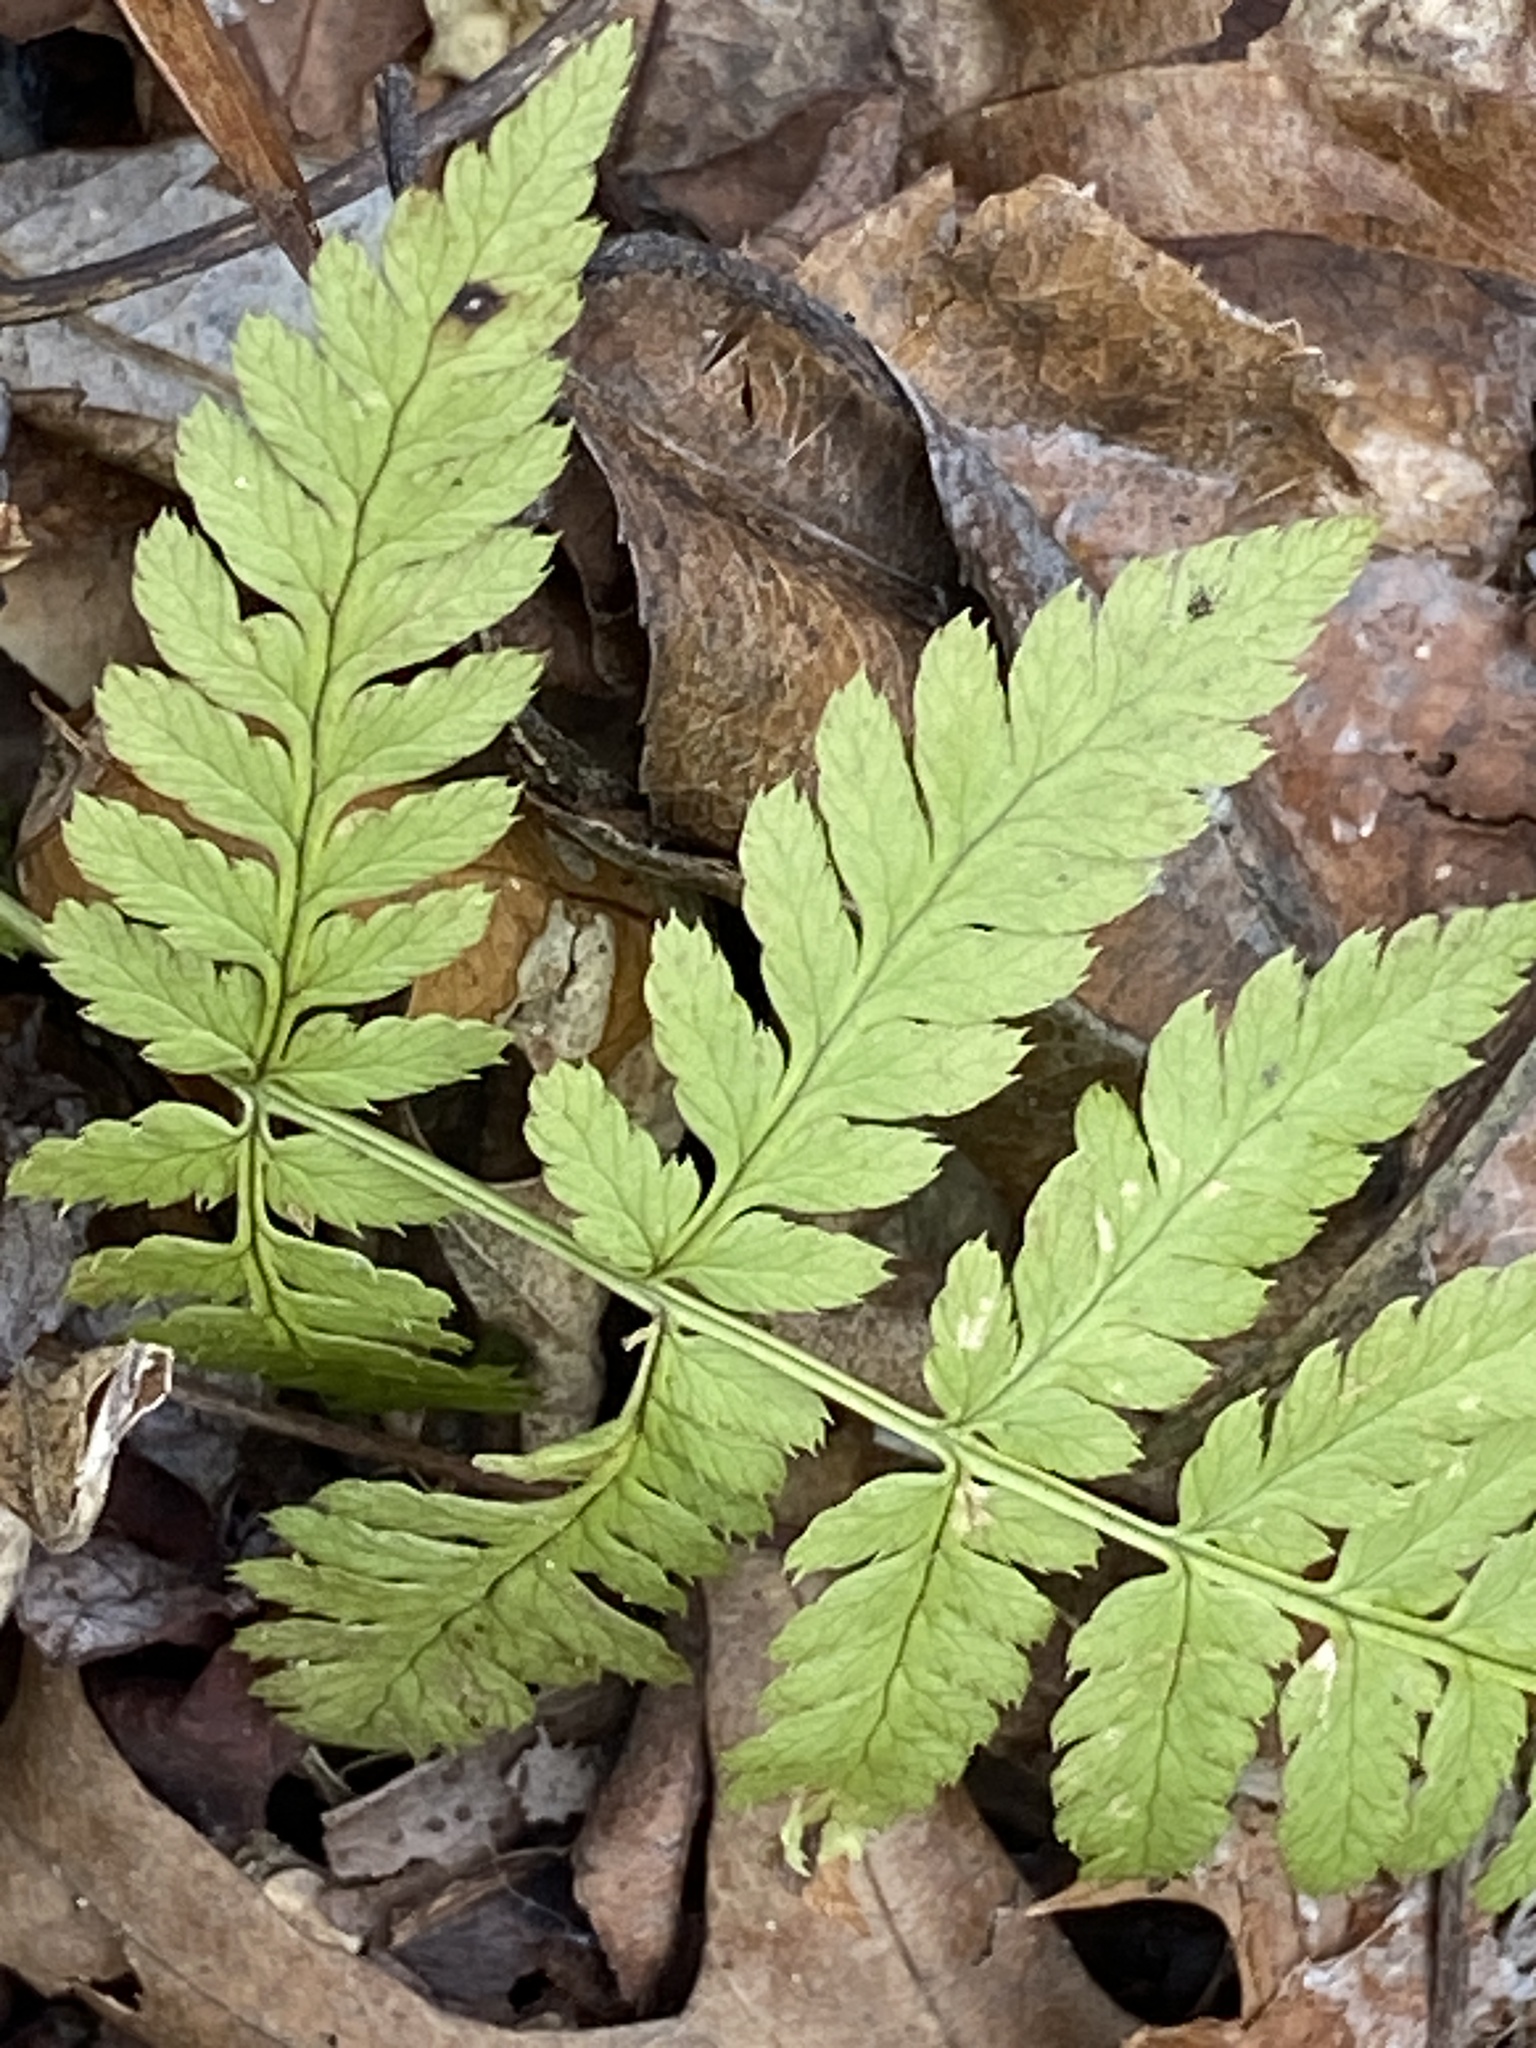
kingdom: Plantae
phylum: Tracheophyta
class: Polypodiopsida
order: Polypodiales
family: Dryopteridaceae
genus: Dryopteris
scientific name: Dryopteris intermedia
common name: Evergreen wood fern
